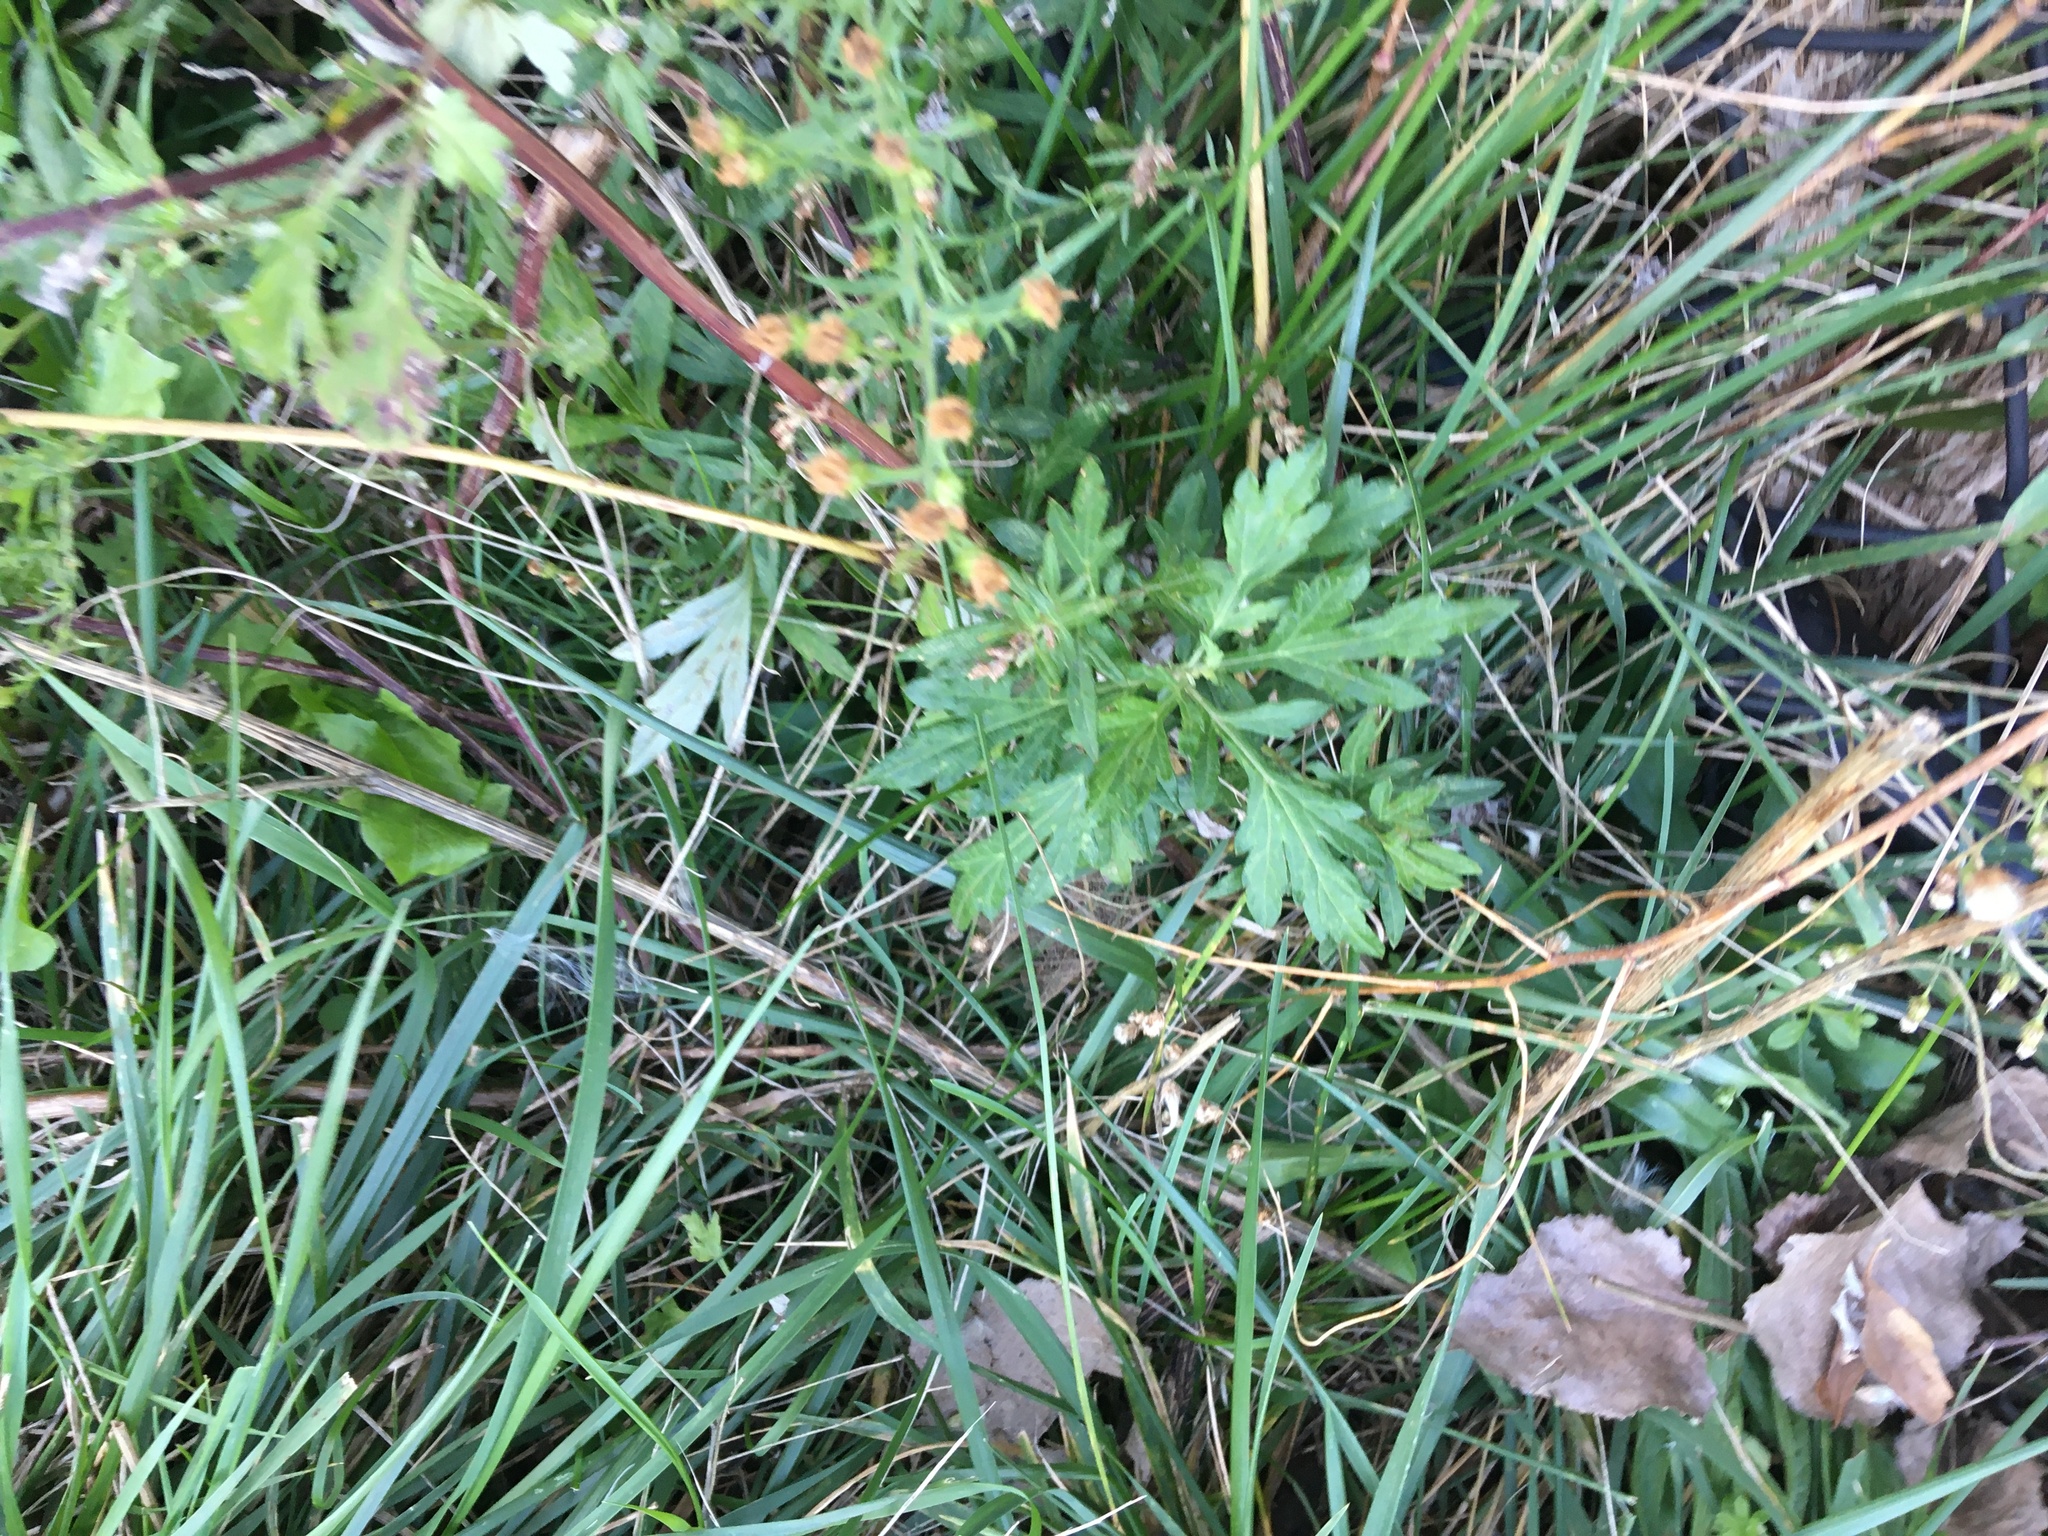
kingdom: Plantae
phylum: Tracheophyta
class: Magnoliopsida
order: Asterales
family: Asteraceae
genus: Artemisia
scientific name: Artemisia vulgaris
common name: Mugwort
